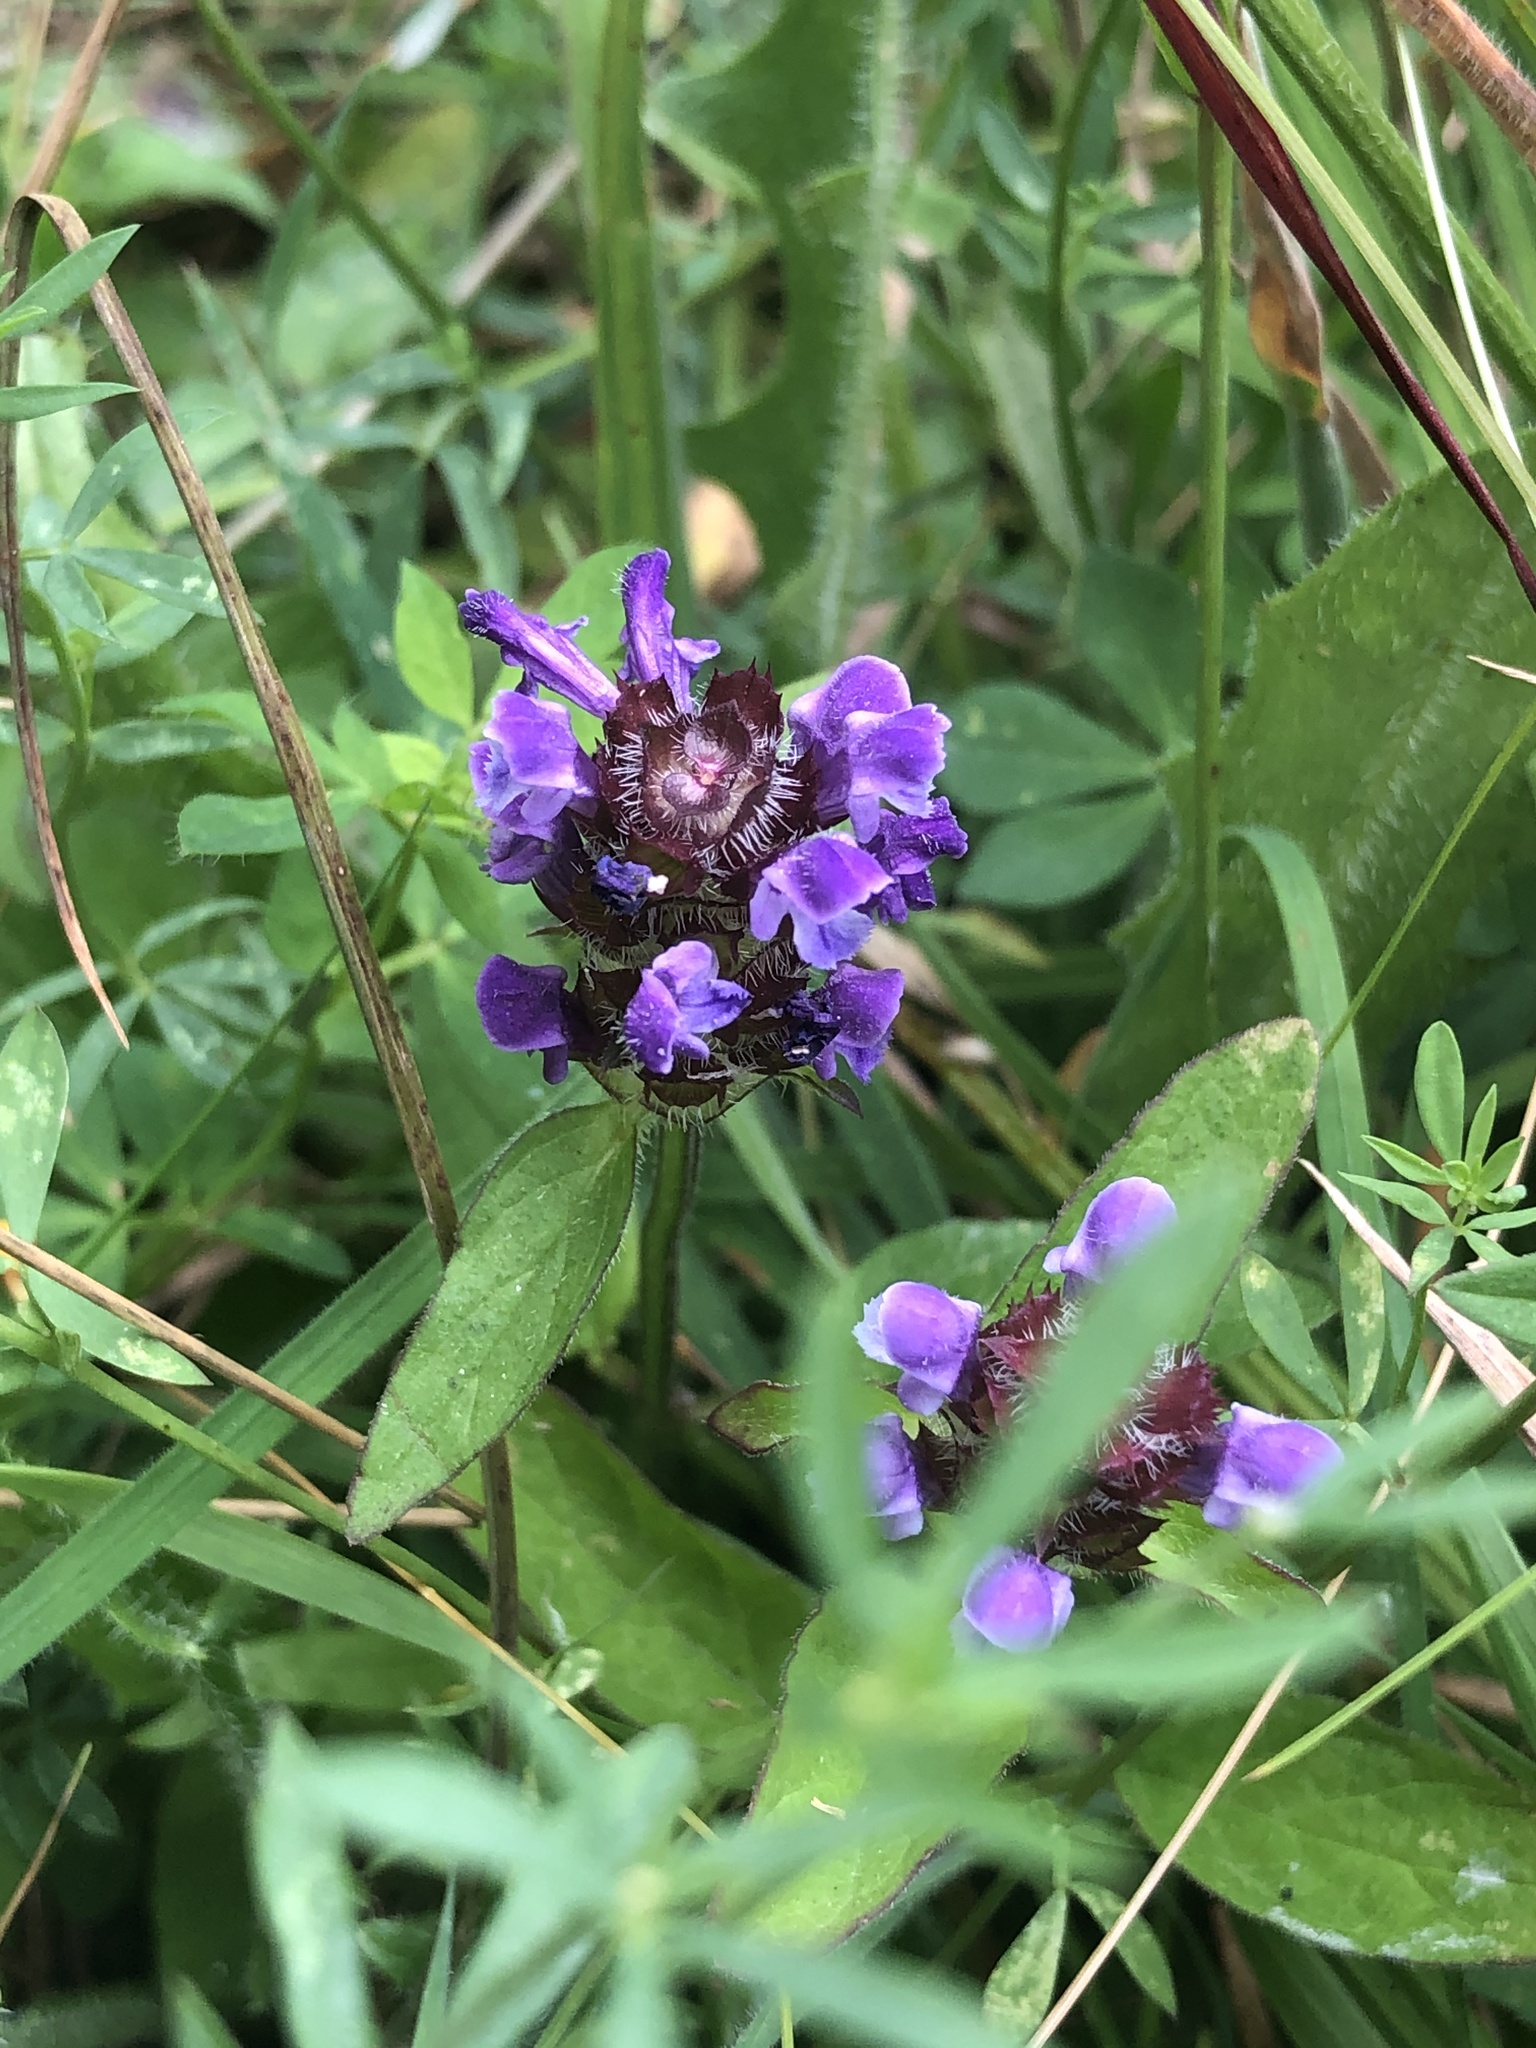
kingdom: Plantae
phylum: Tracheophyta
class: Magnoliopsida
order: Lamiales
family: Lamiaceae
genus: Prunella
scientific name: Prunella vulgaris
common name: Heal-all
